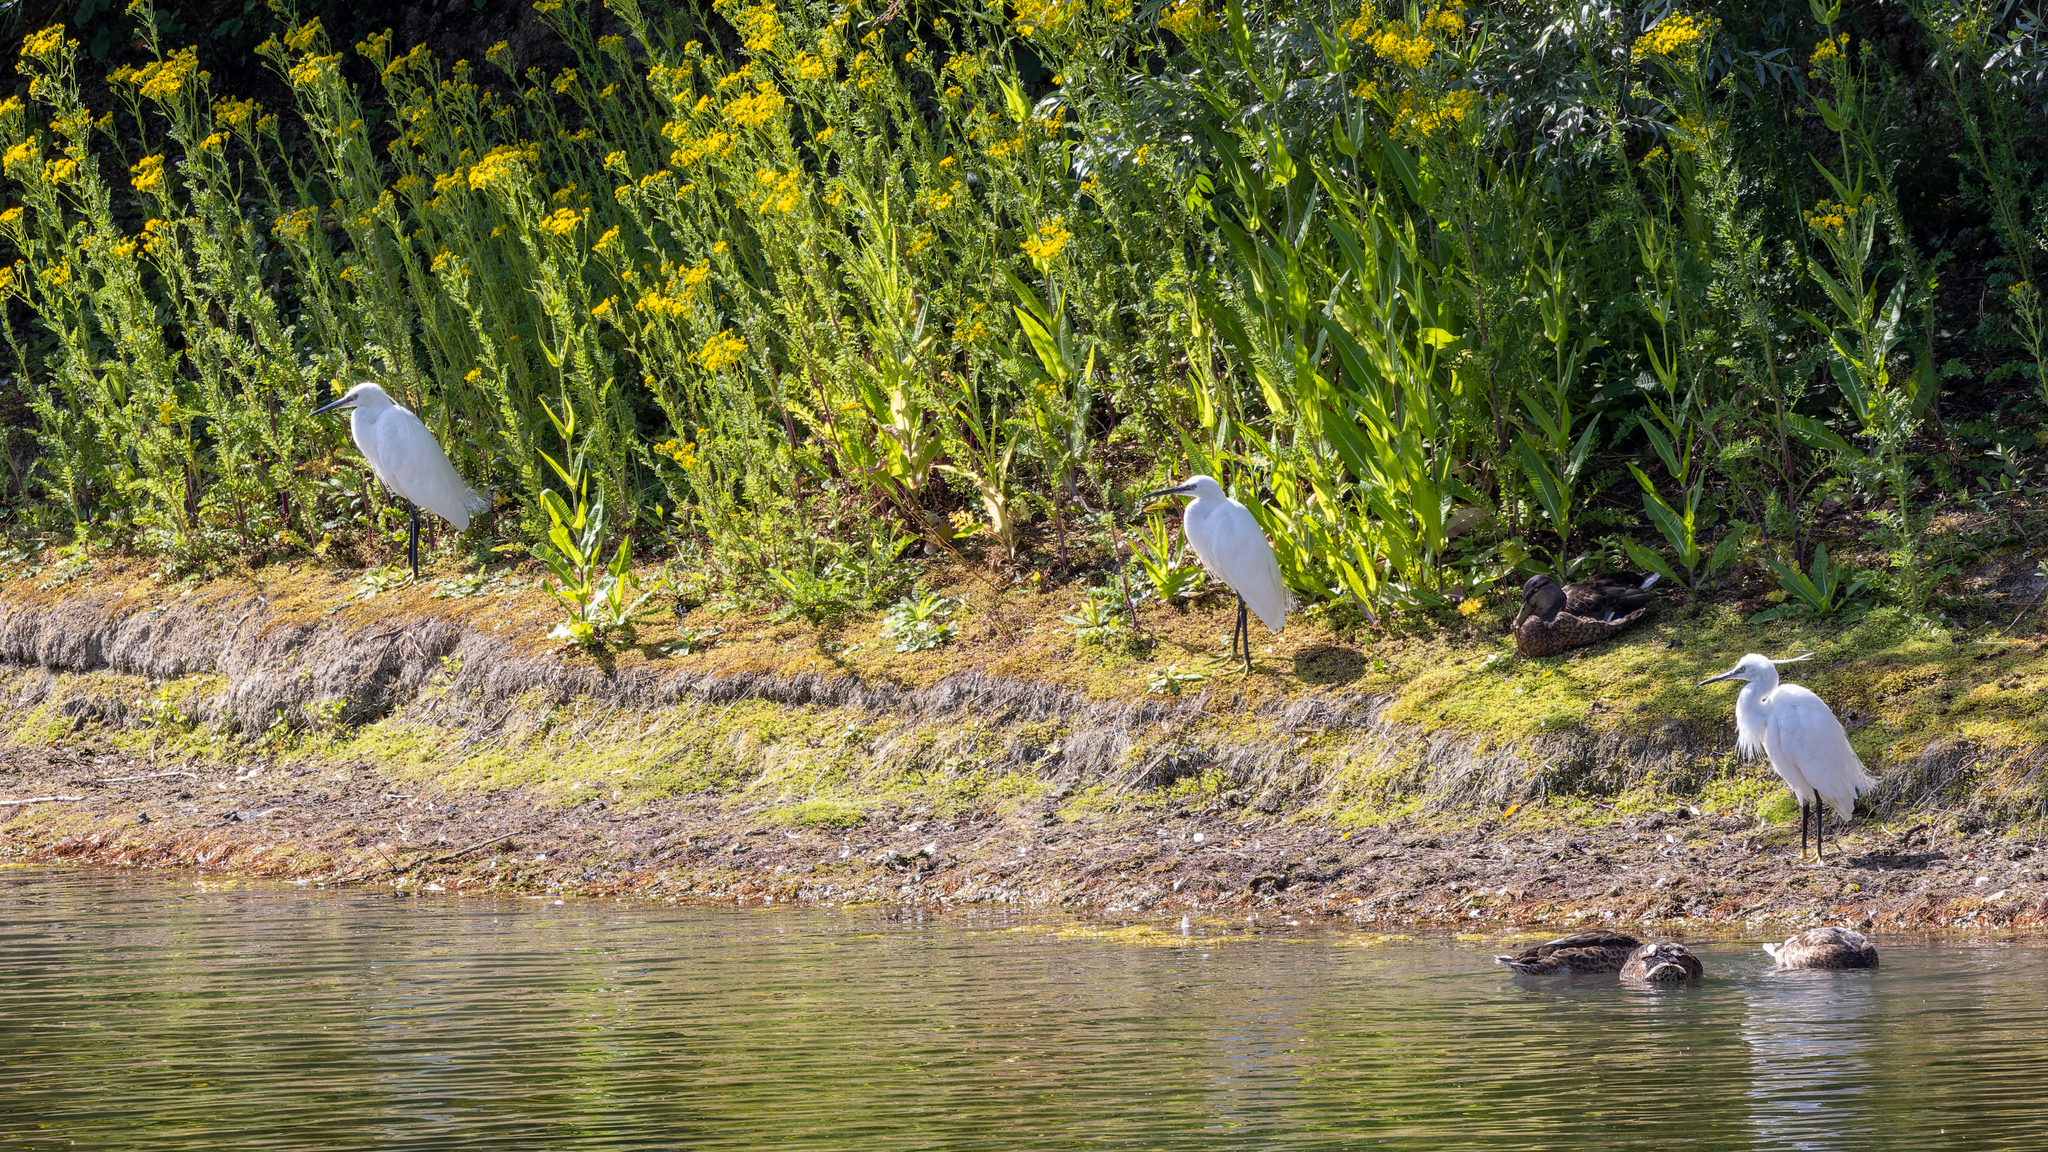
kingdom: Animalia
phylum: Chordata
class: Aves
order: Pelecaniformes
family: Ardeidae
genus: Egretta
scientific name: Egretta garzetta
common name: Little egret
